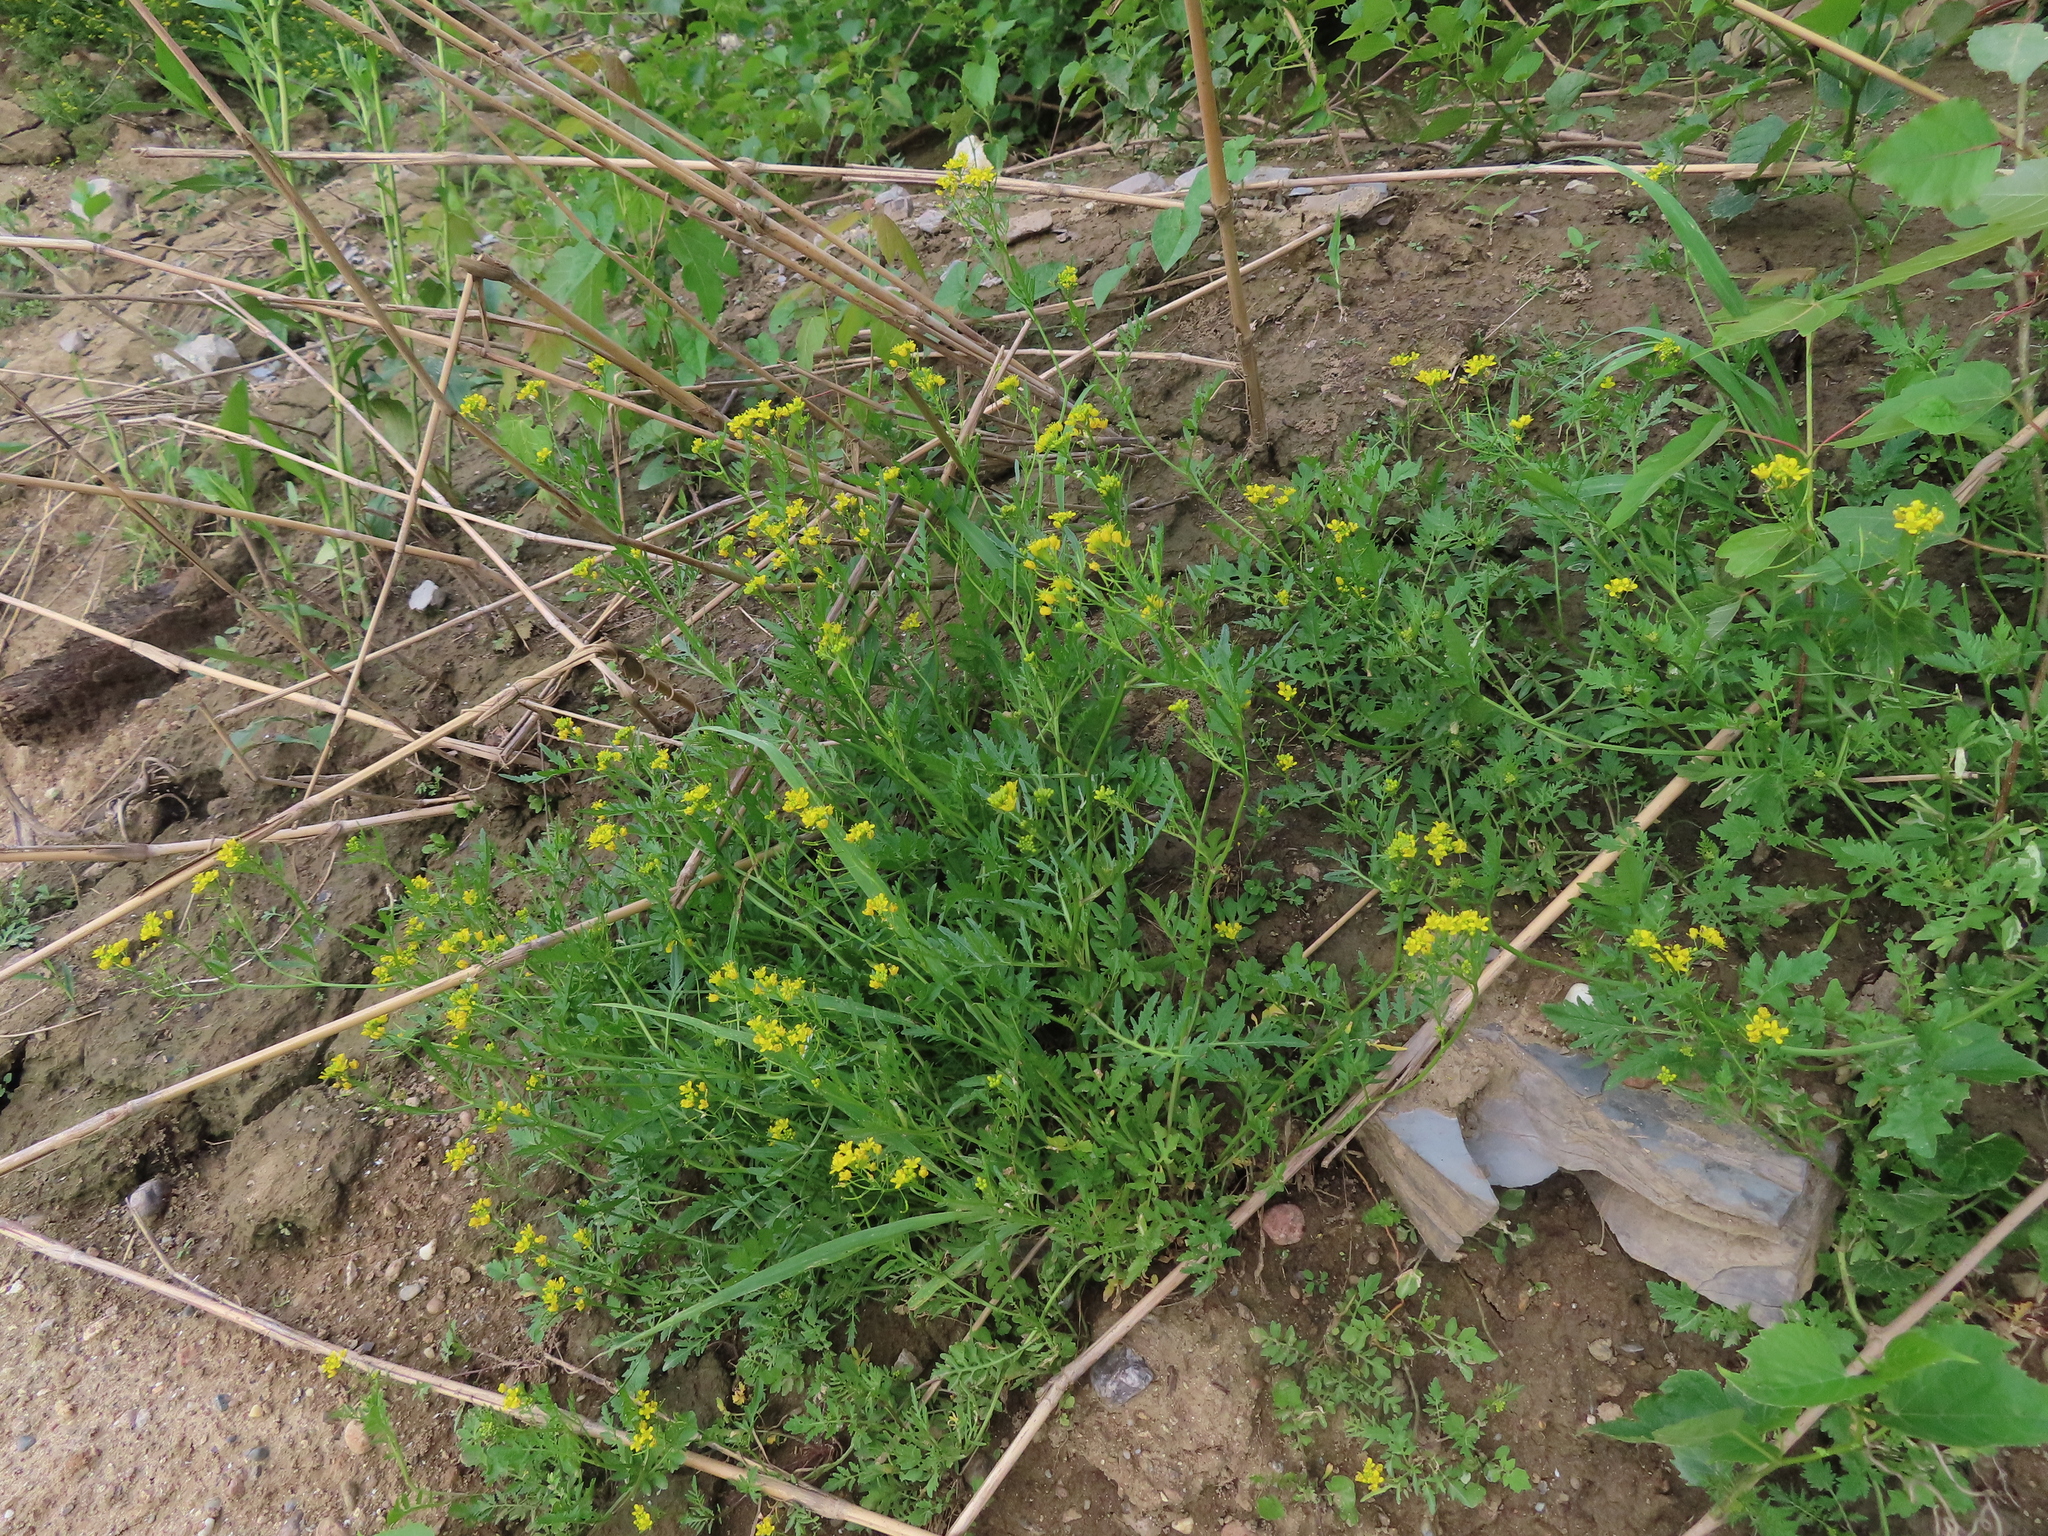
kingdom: Plantae
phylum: Tracheophyta
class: Magnoliopsida
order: Brassicales
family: Brassicaceae
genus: Rorippa
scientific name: Rorippa sylvestris
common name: Creeping yellowcress
